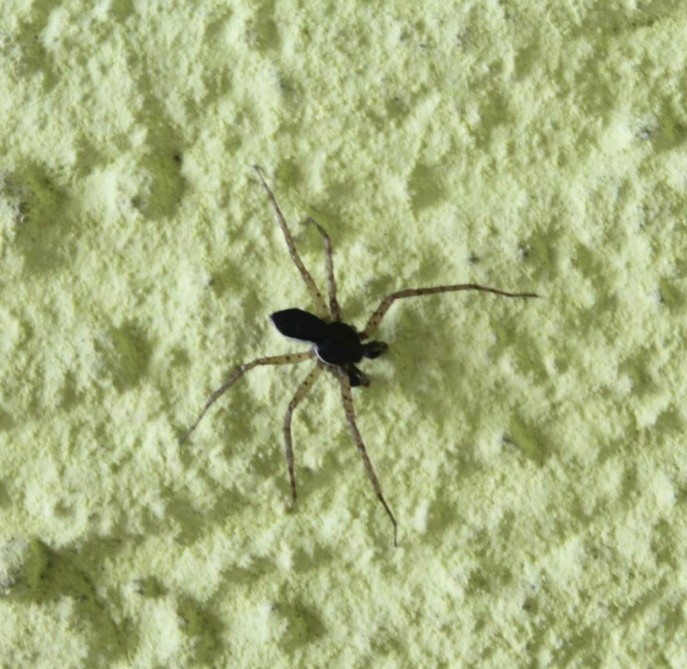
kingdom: Animalia
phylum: Arthropoda
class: Arachnida
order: Araneae
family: Philodromidae
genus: Philodromus
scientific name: Philodromus dispar
